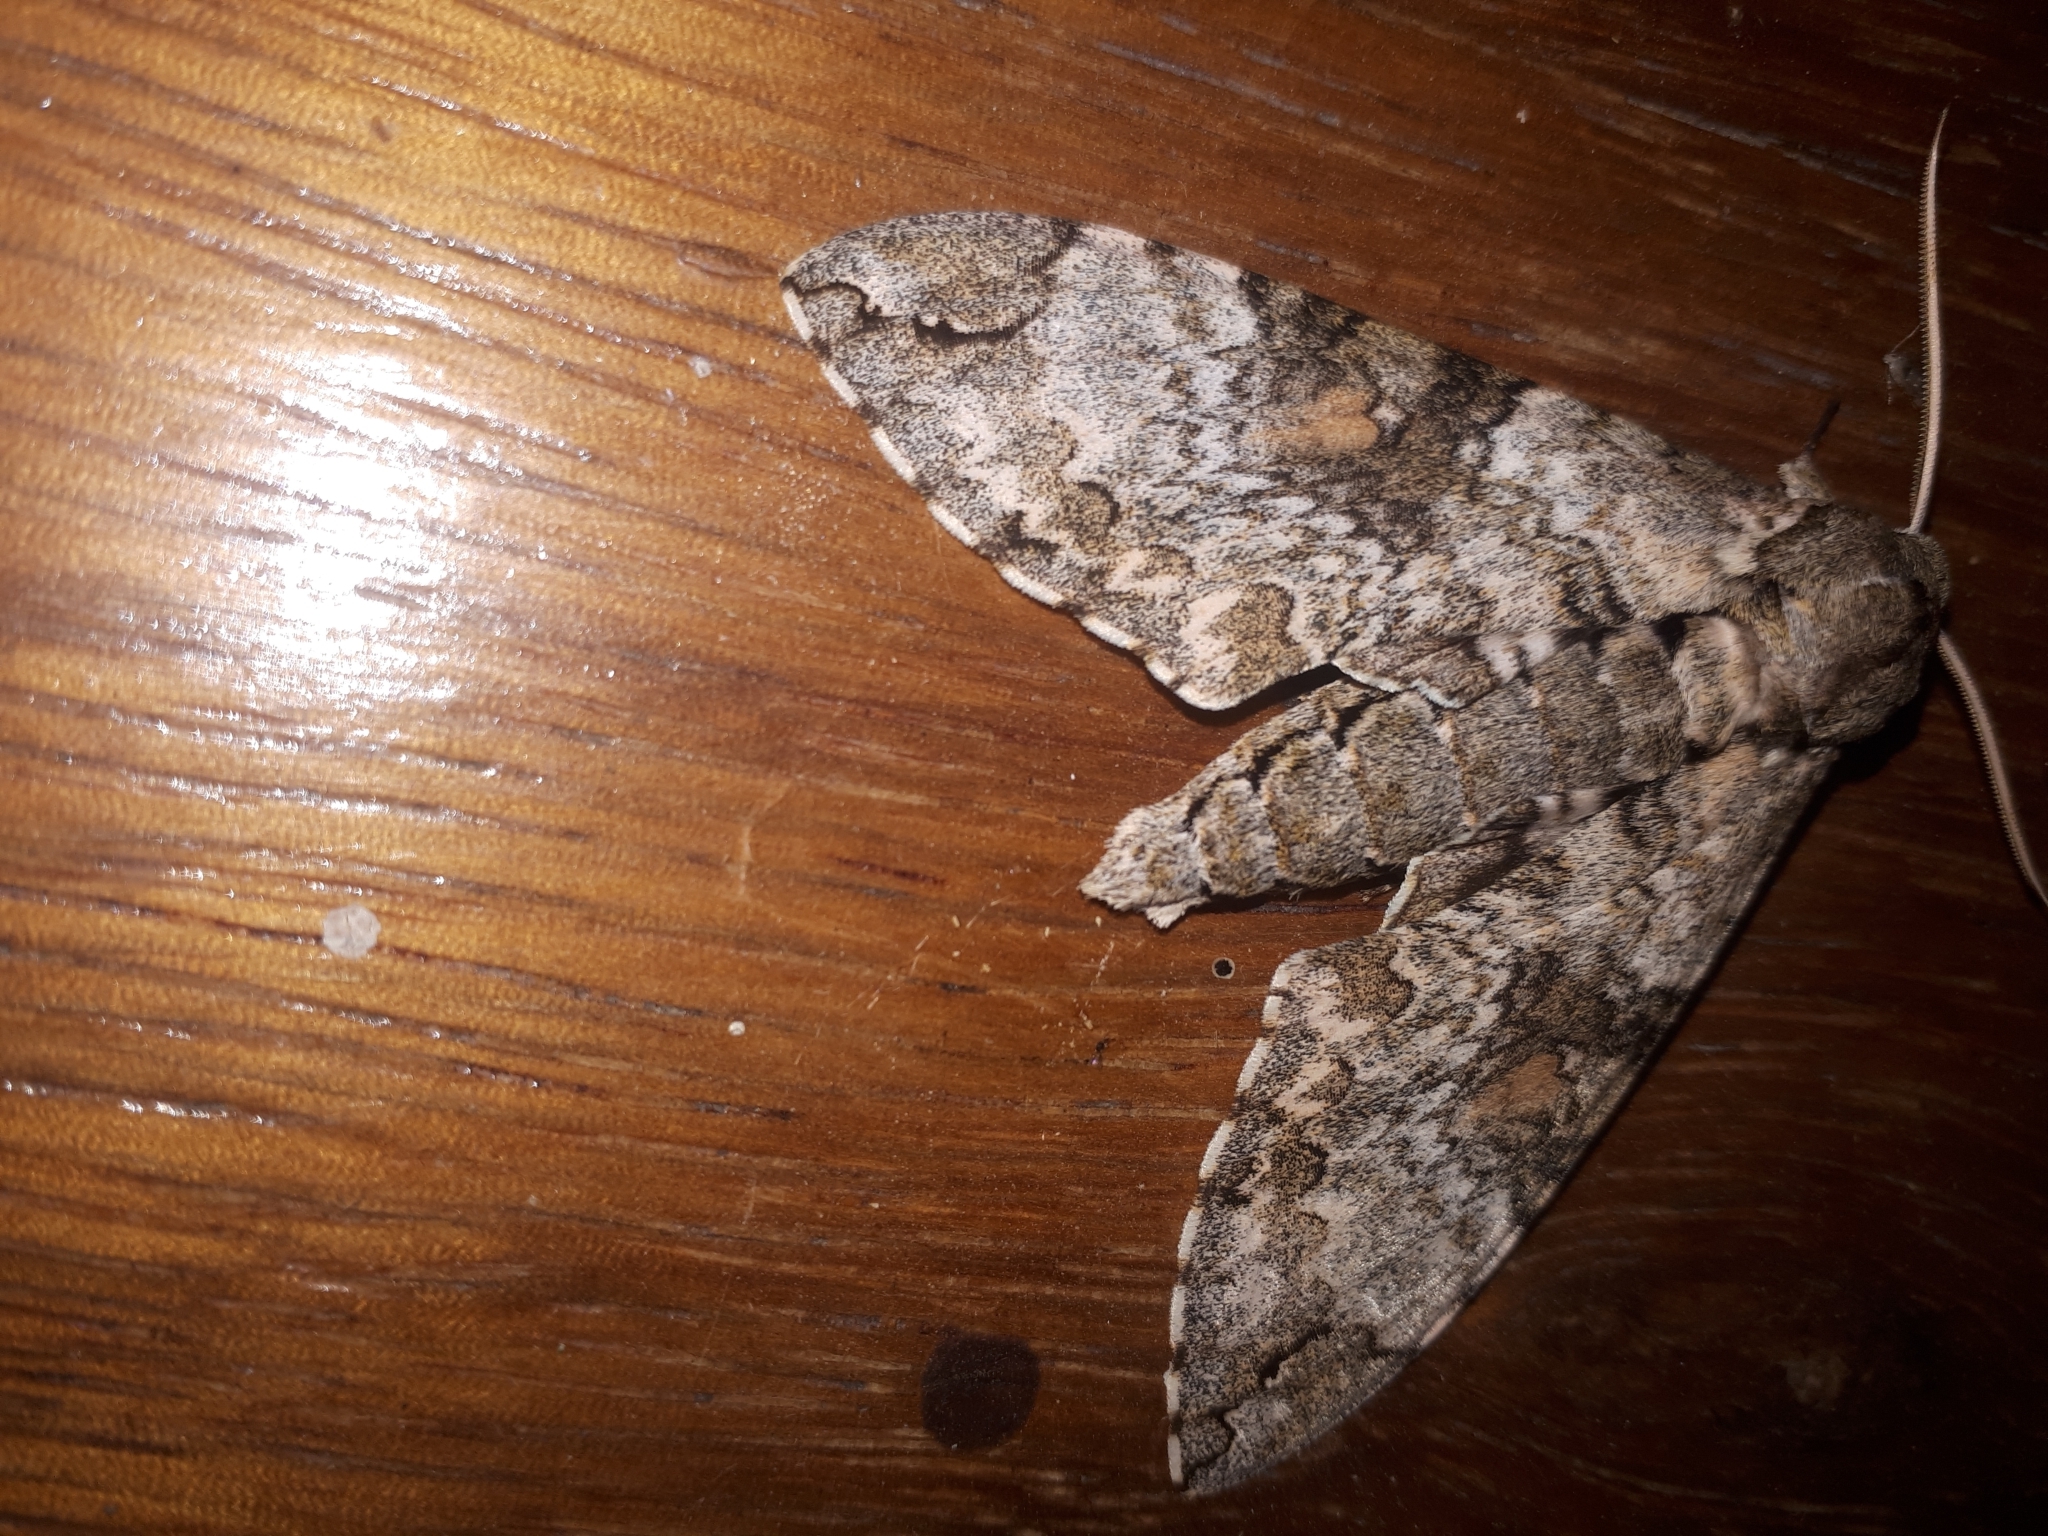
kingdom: Animalia
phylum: Arthropoda
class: Insecta
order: Lepidoptera
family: Sphingidae
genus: Manduca
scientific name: Manduca florestan
